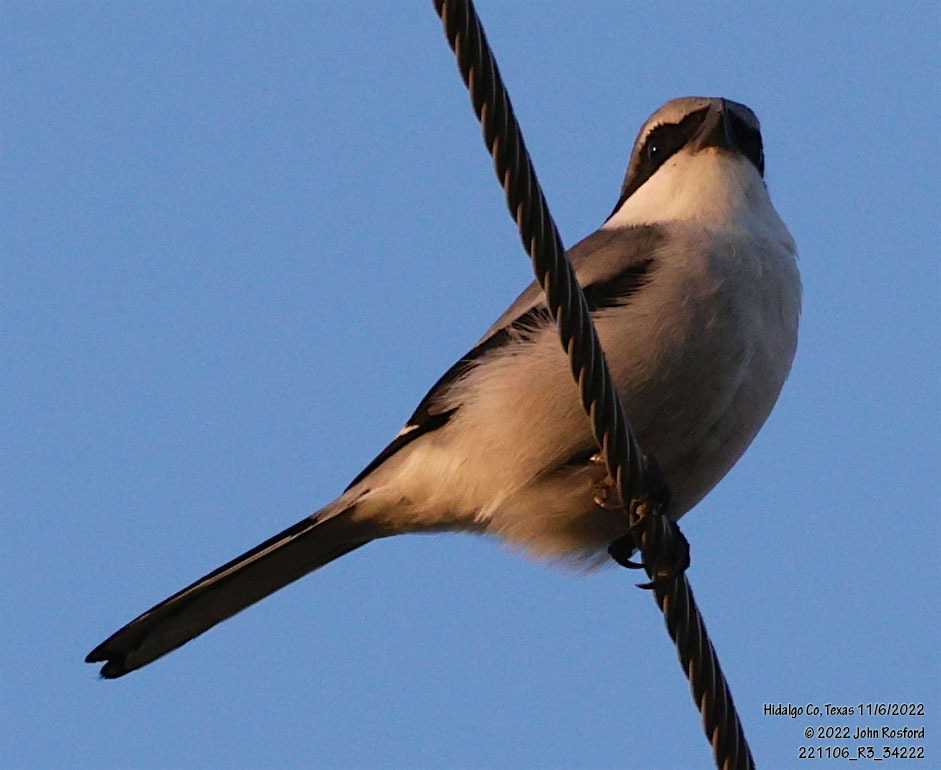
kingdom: Animalia
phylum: Chordata
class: Aves
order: Passeriformes
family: Laniidae
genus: Lanius
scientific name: Lanius ludovicianus
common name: Loggerhead shrike
